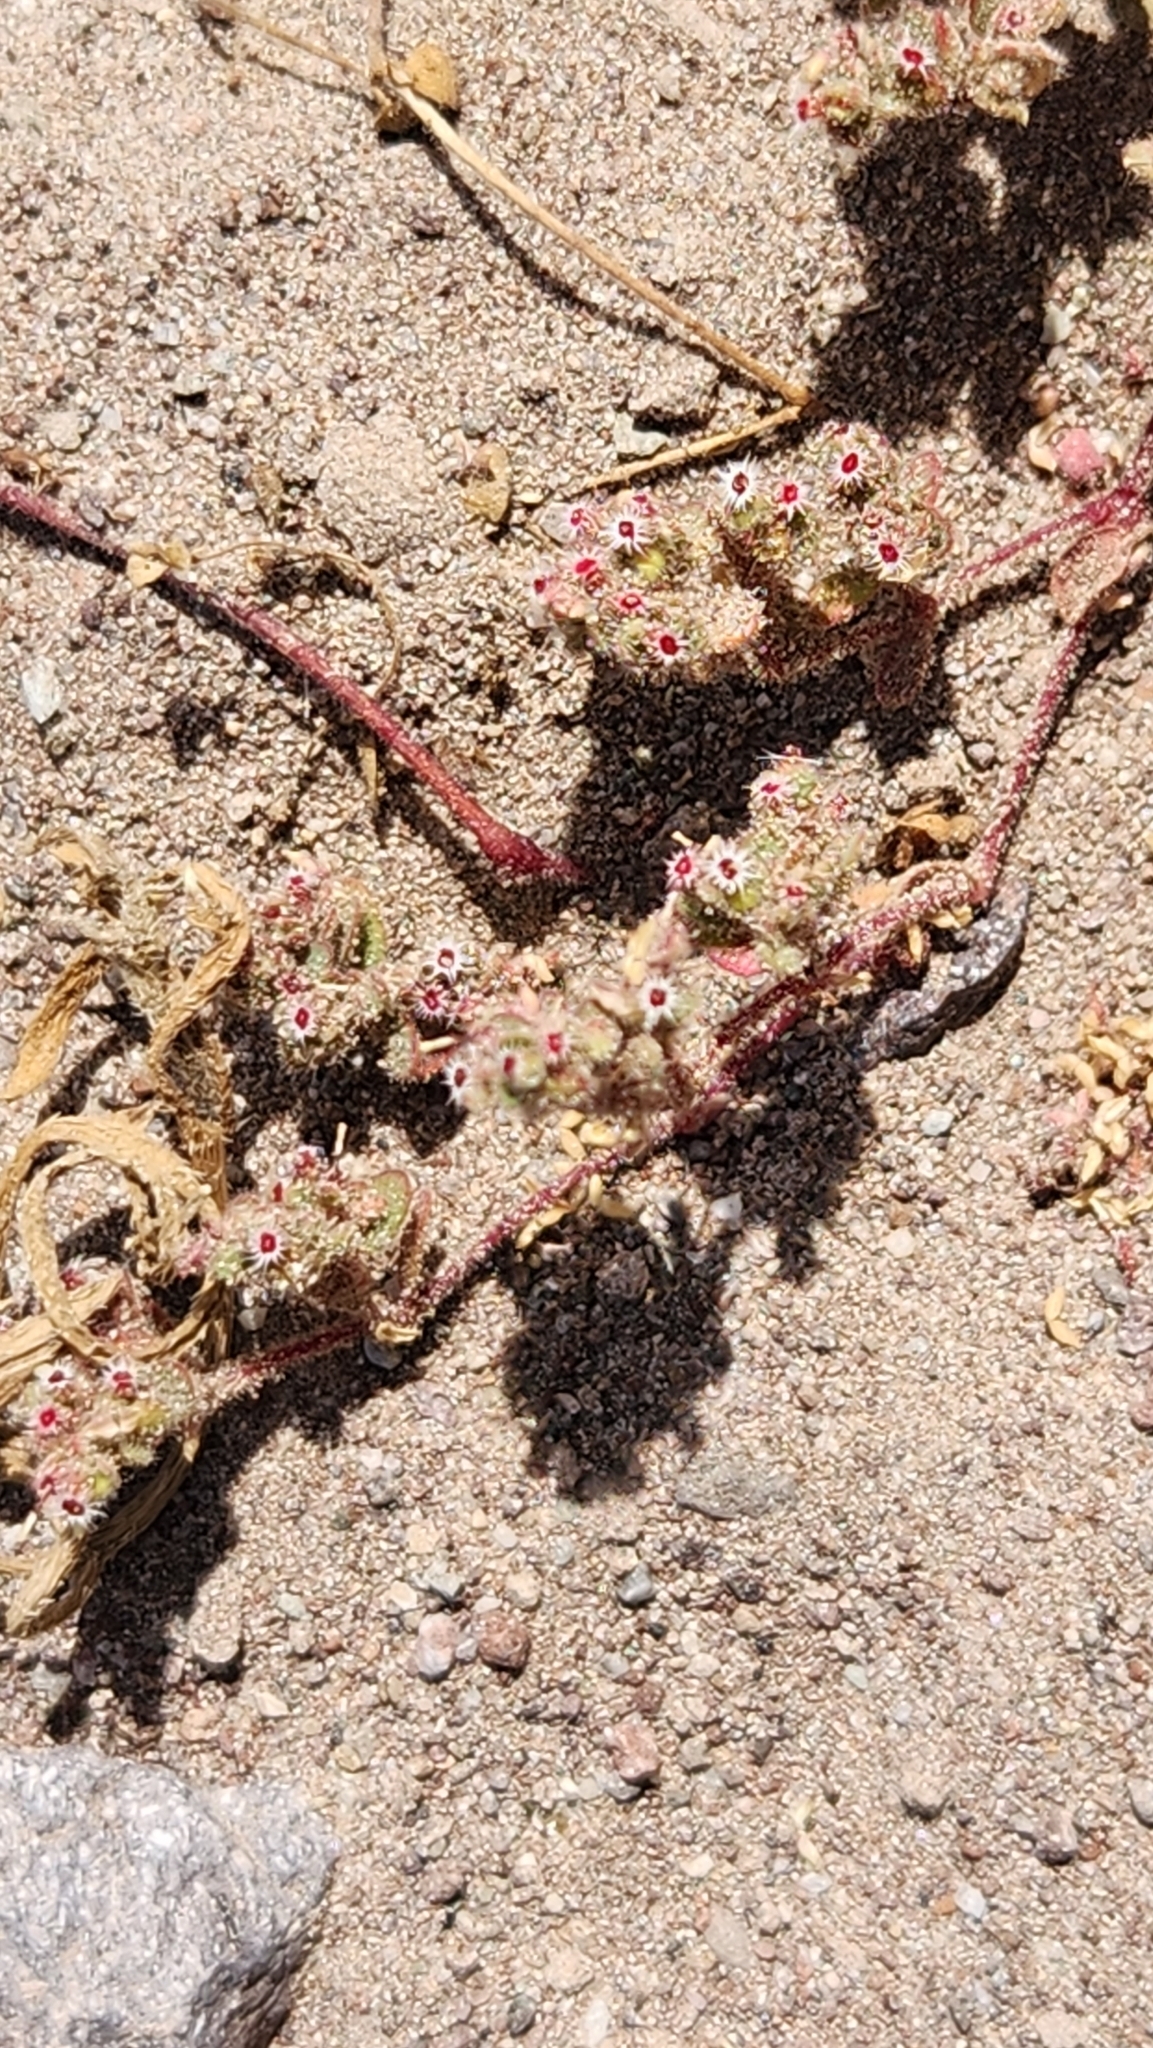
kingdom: Plantae
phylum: Tracheophyta
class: Magnoliopsida
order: Malpighiales
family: Euphorbiaceae
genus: Euphorbia
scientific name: Euphorbia setiloba
